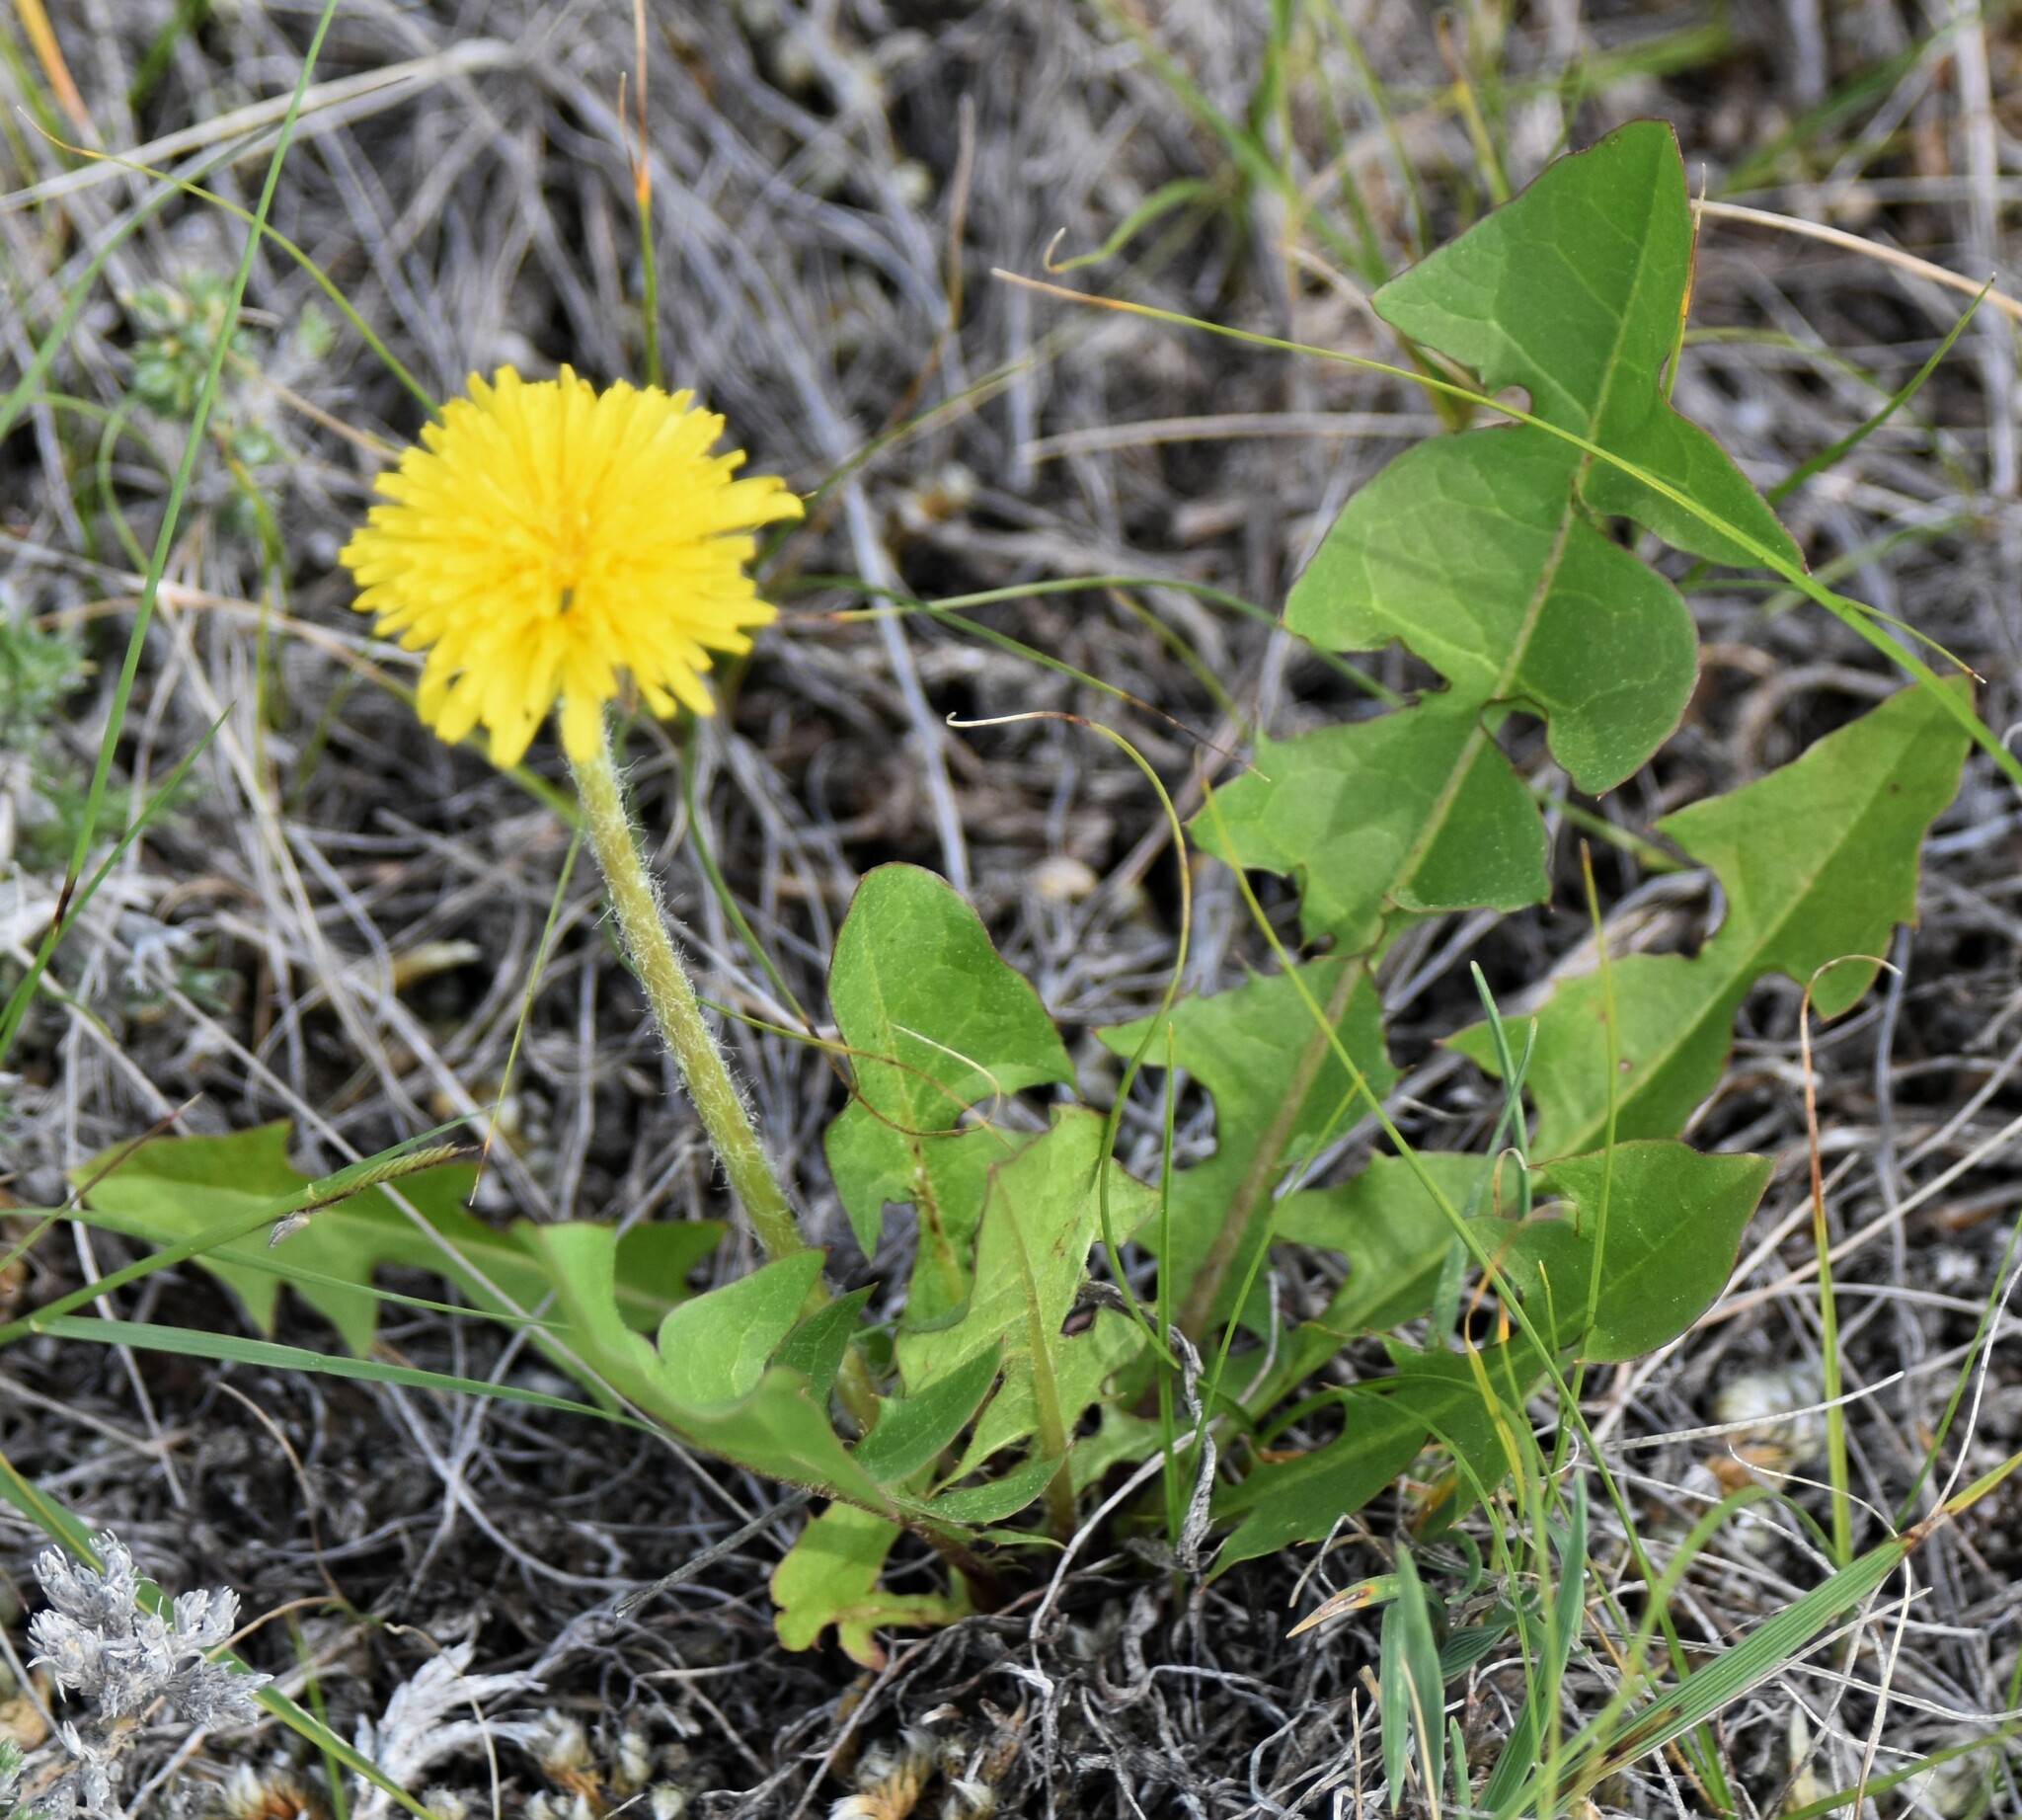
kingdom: Plantae
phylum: Tracheophyta
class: Magnoliopsida
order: Asterales
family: Asteraceae
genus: Taraxacum
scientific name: Taraxacum officinale
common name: Common dandelion
